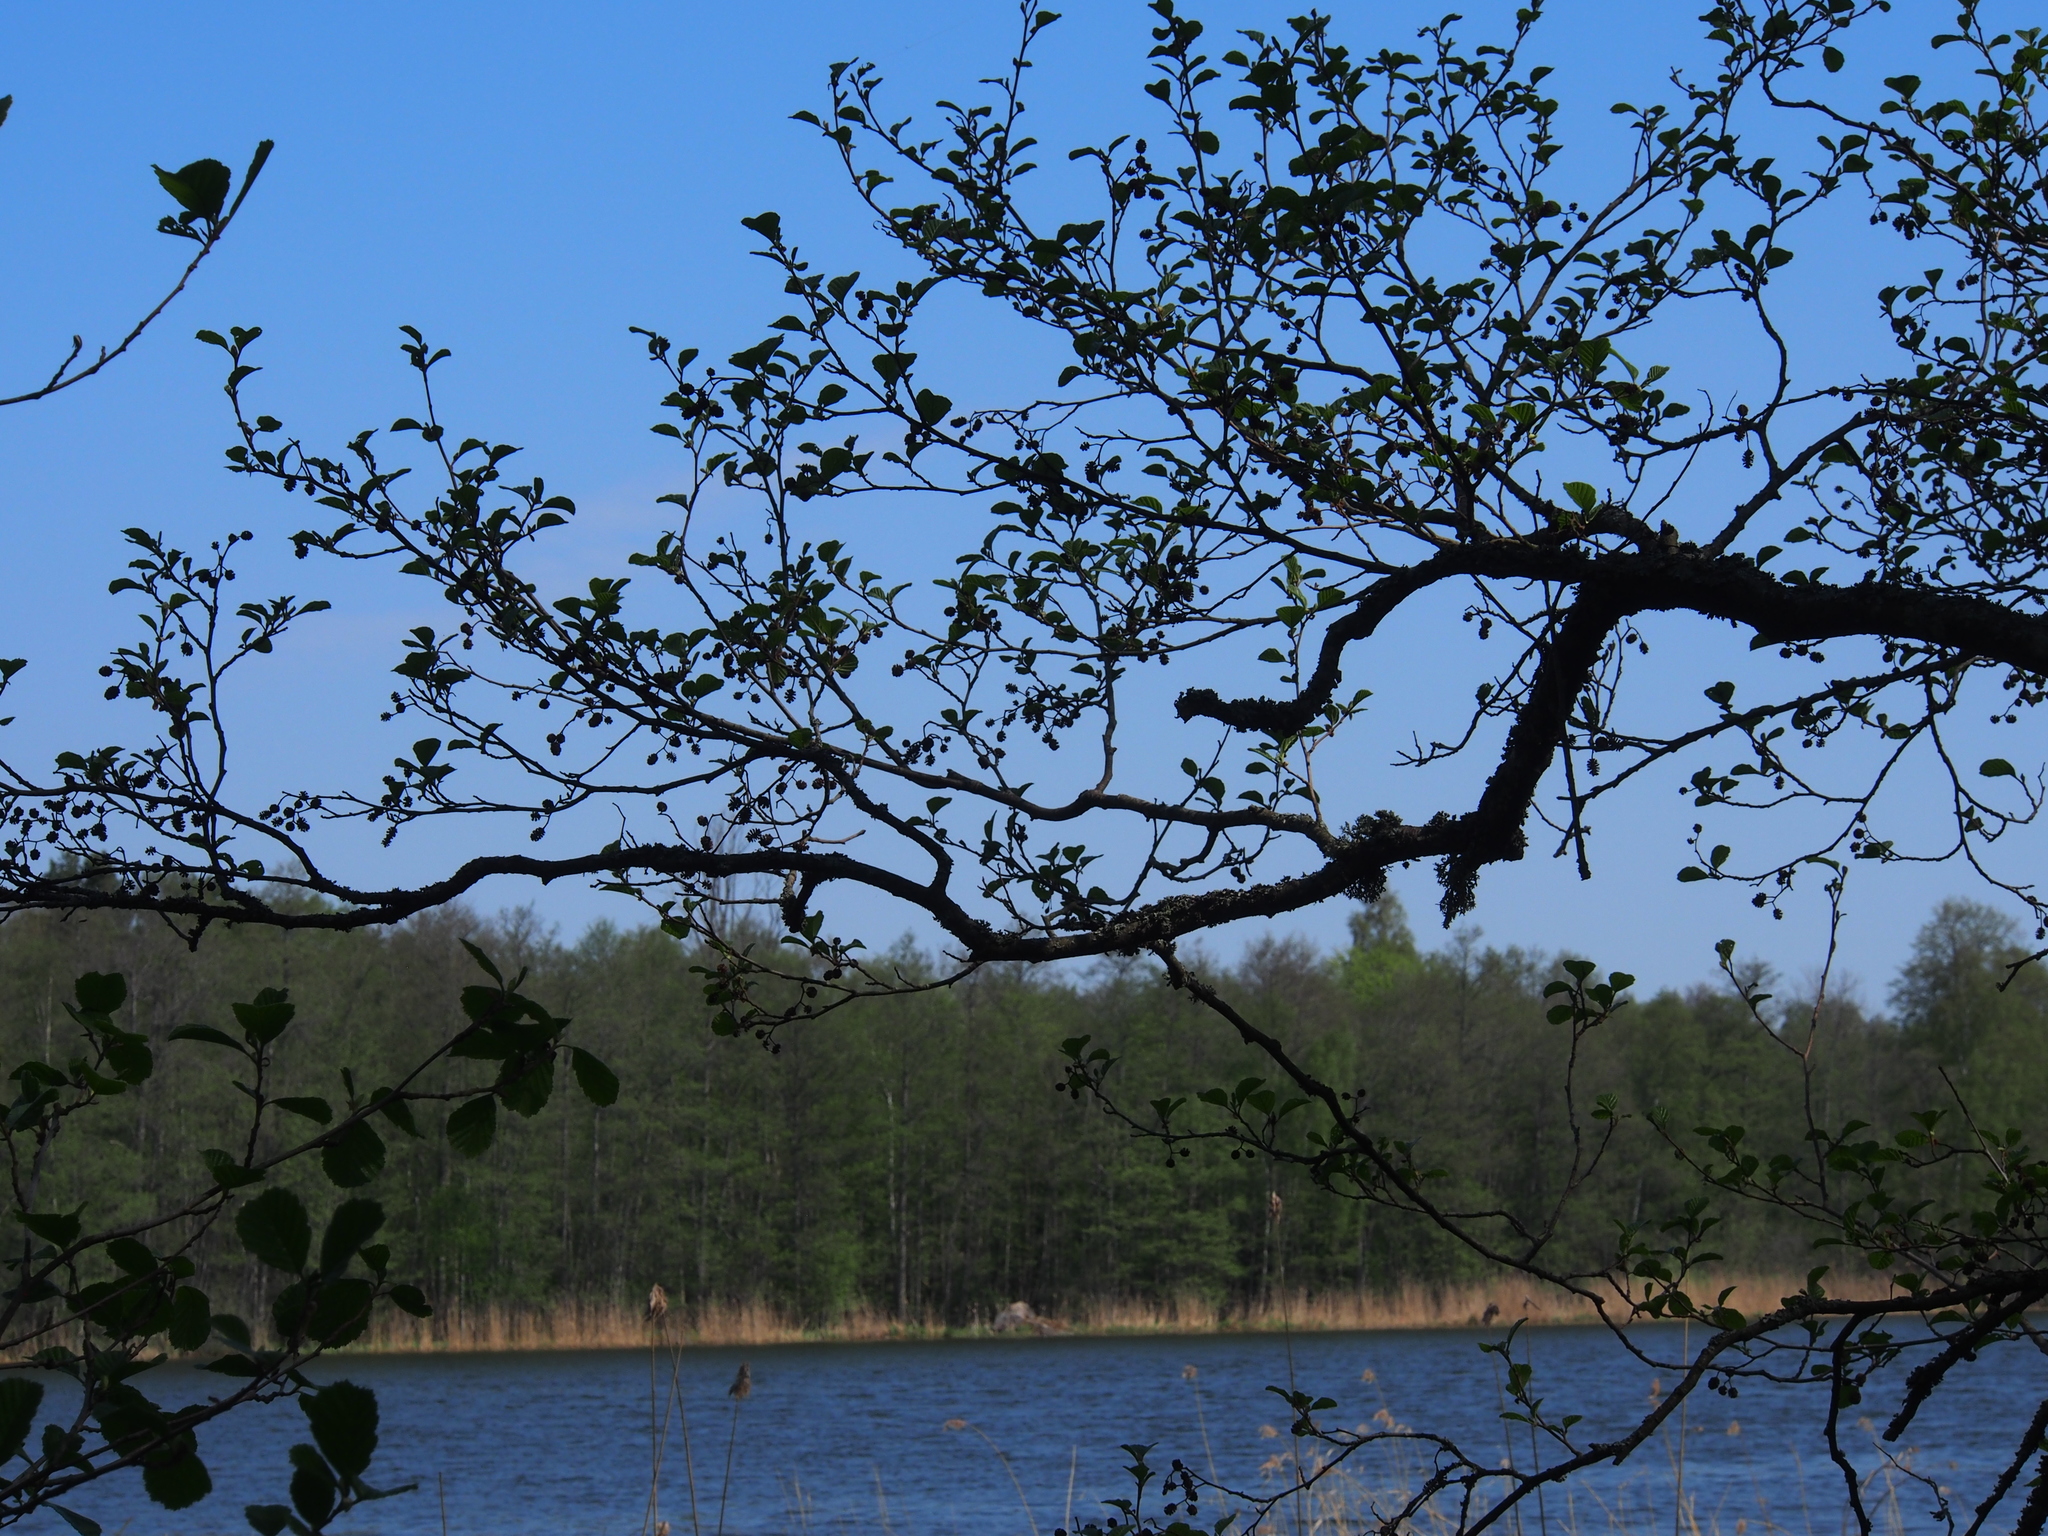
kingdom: Plantae
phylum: Tracheophyta
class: Magnoliopsida
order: Fagales
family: Betulaceae
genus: Alnus
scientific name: Alnus glutinosa
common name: Black alder
